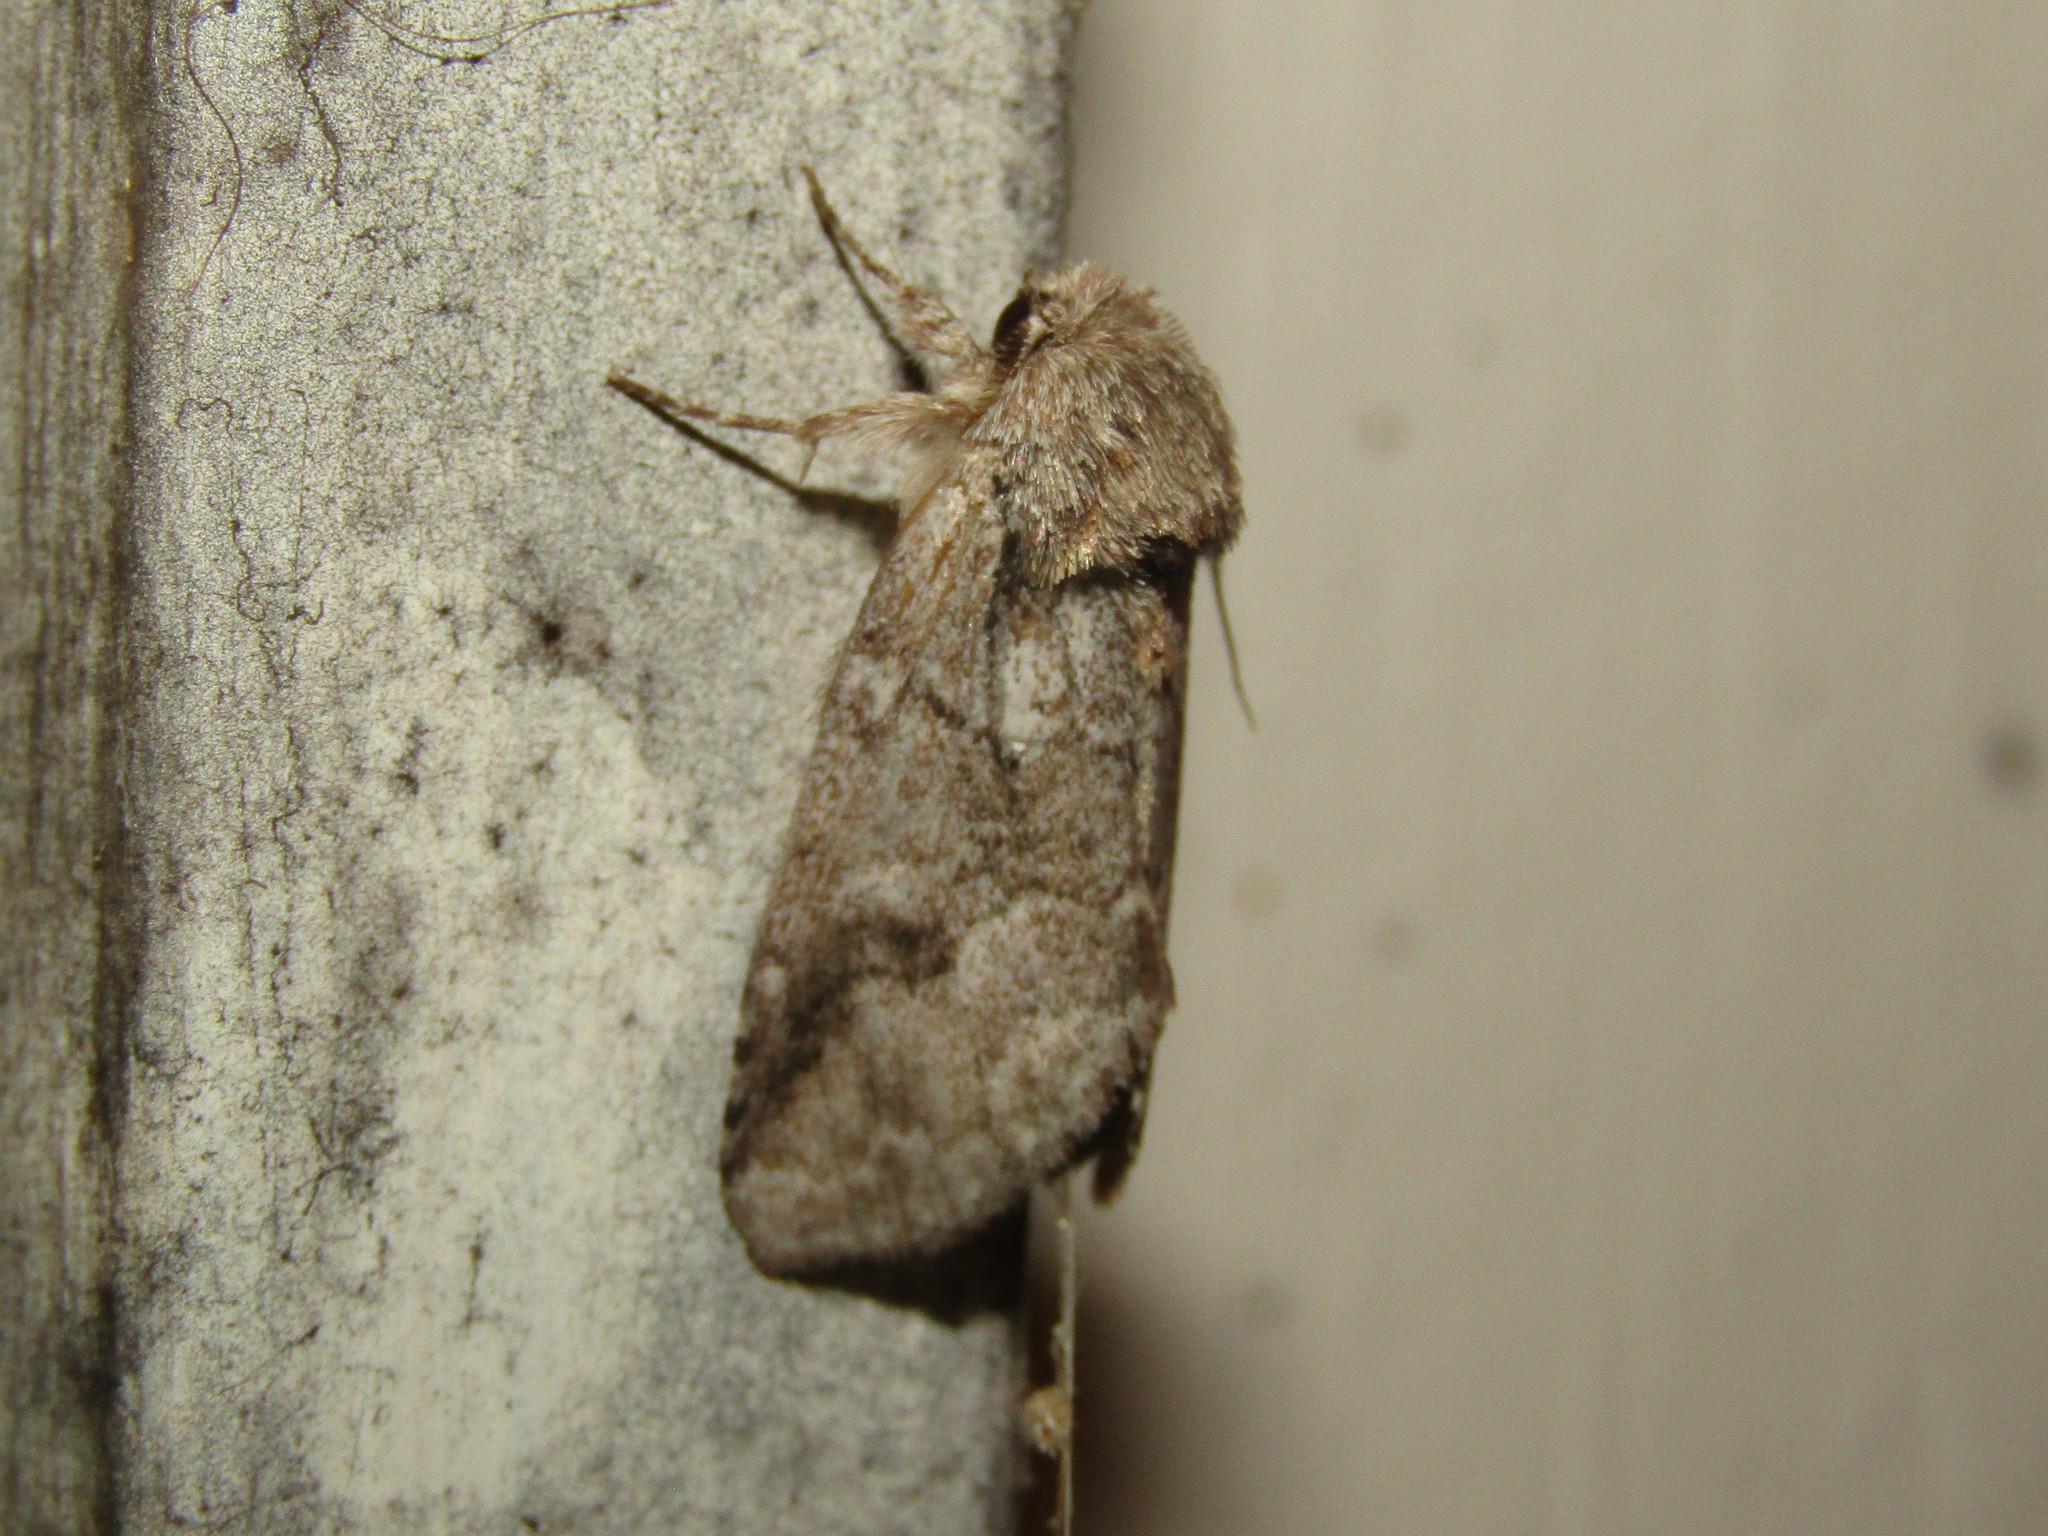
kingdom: Animalia
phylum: Arthropoda
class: Insecta
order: Lepidoptera
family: Notodontidae
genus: Lochmaeus
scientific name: Lochmaeus bilineata
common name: Double-lined prominent
